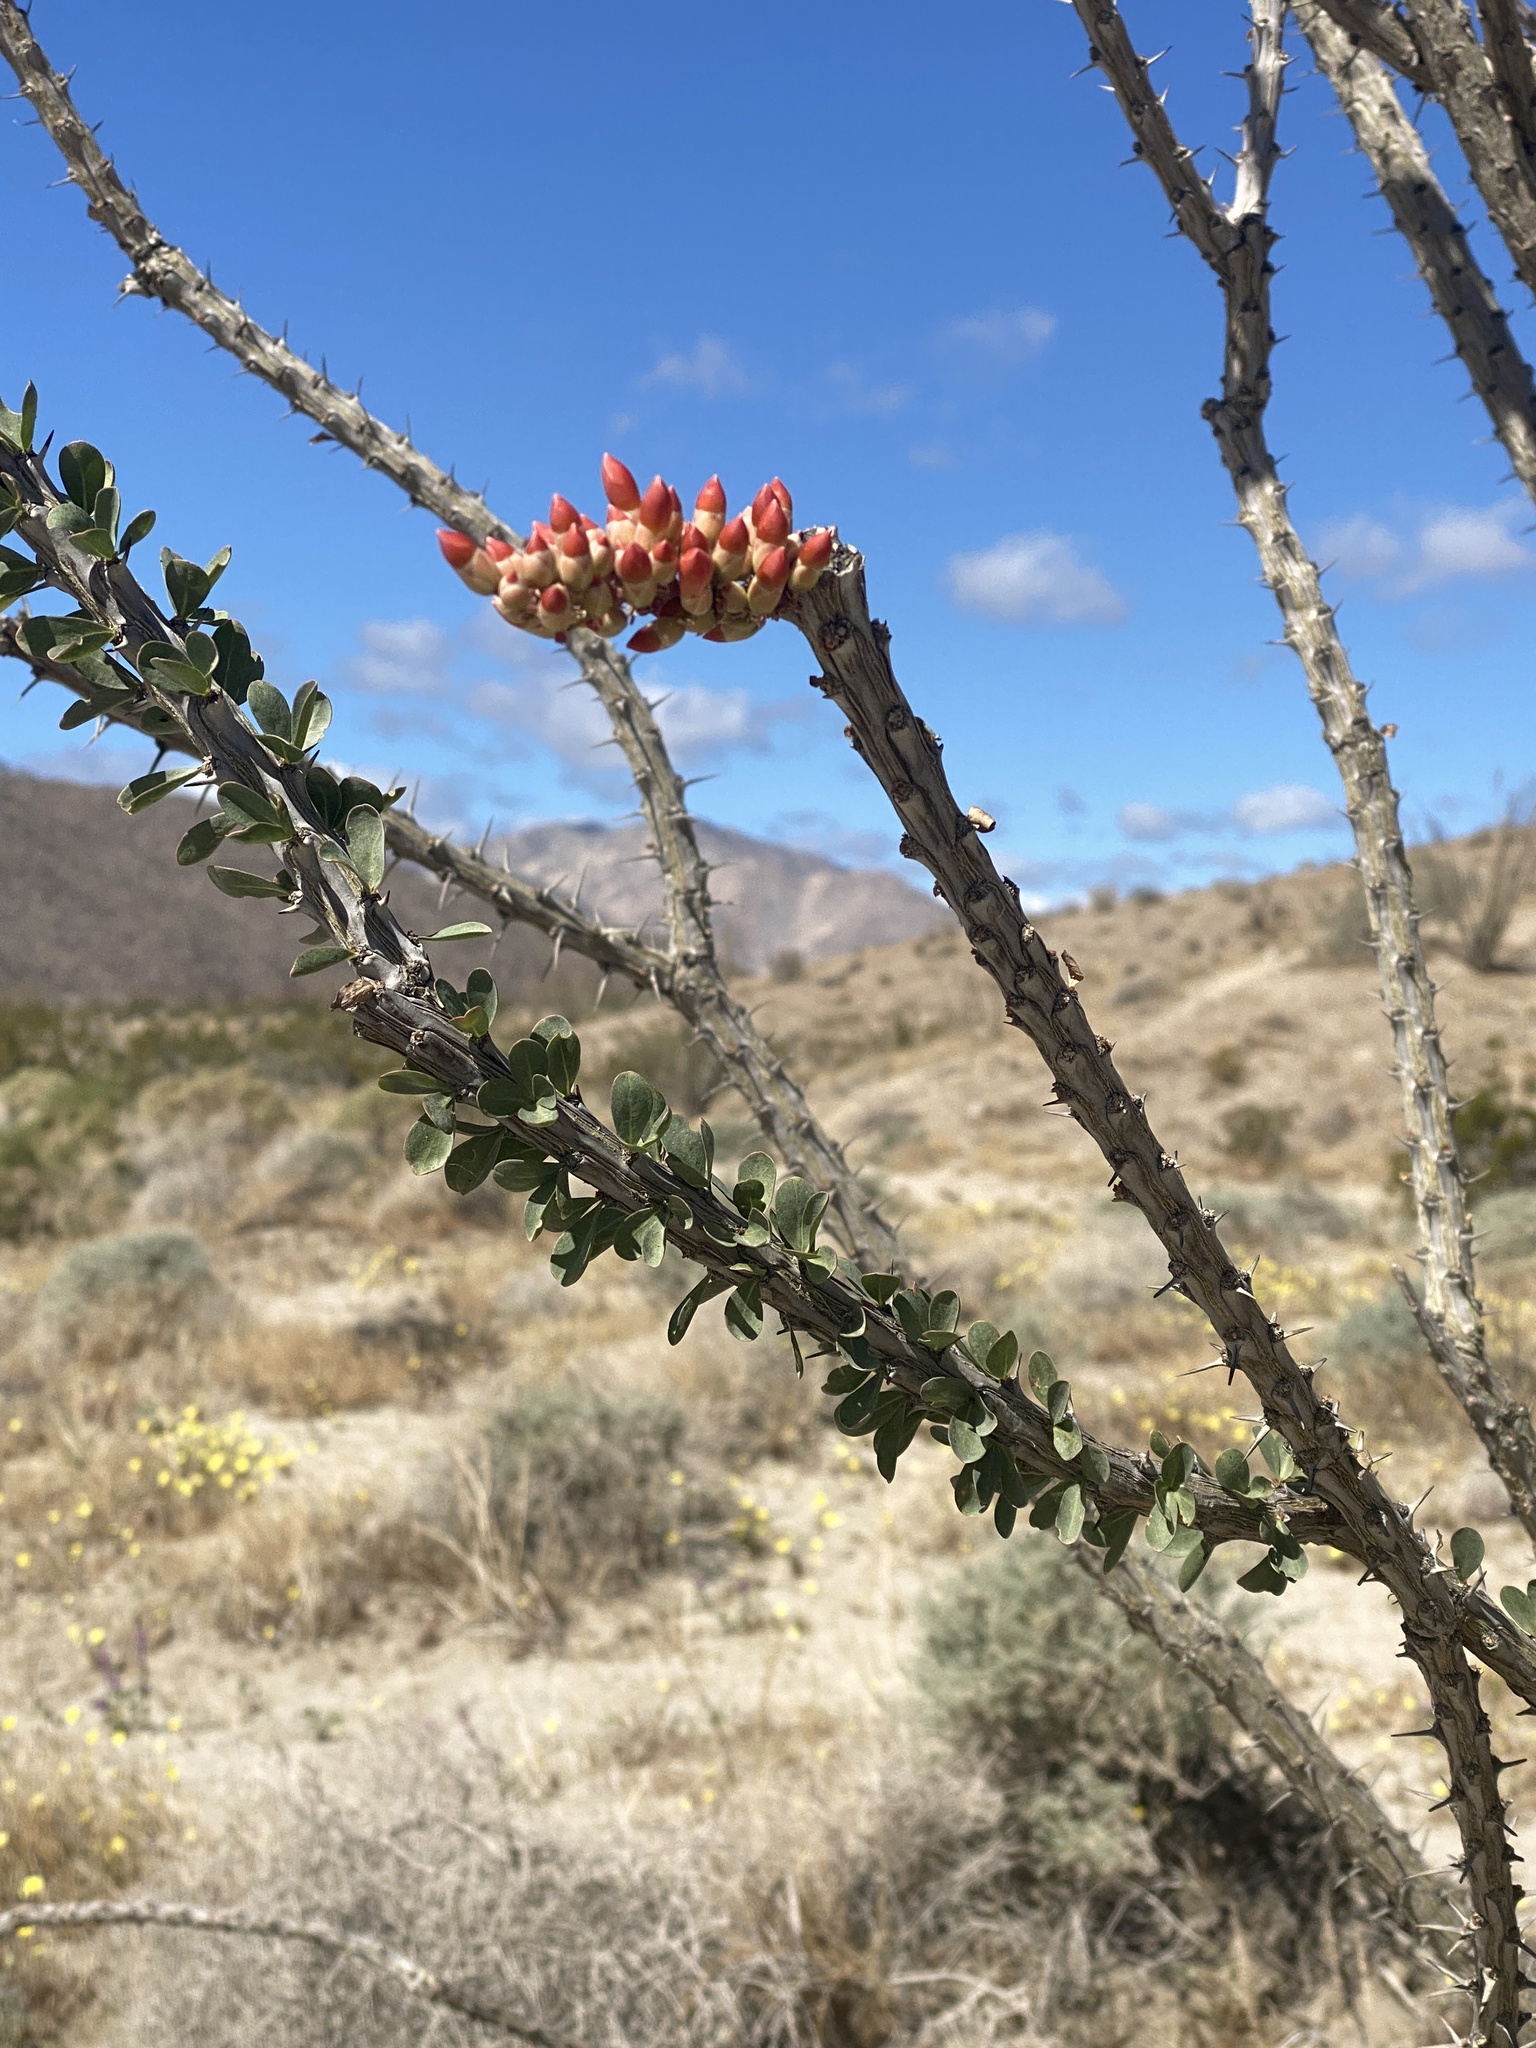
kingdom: Plantae
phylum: Tracheophyta
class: Magnoliopsida
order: Ericales
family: Fouquieriaceae
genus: Fouquieria
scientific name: Fouquieria splendens
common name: Vine-cactus
